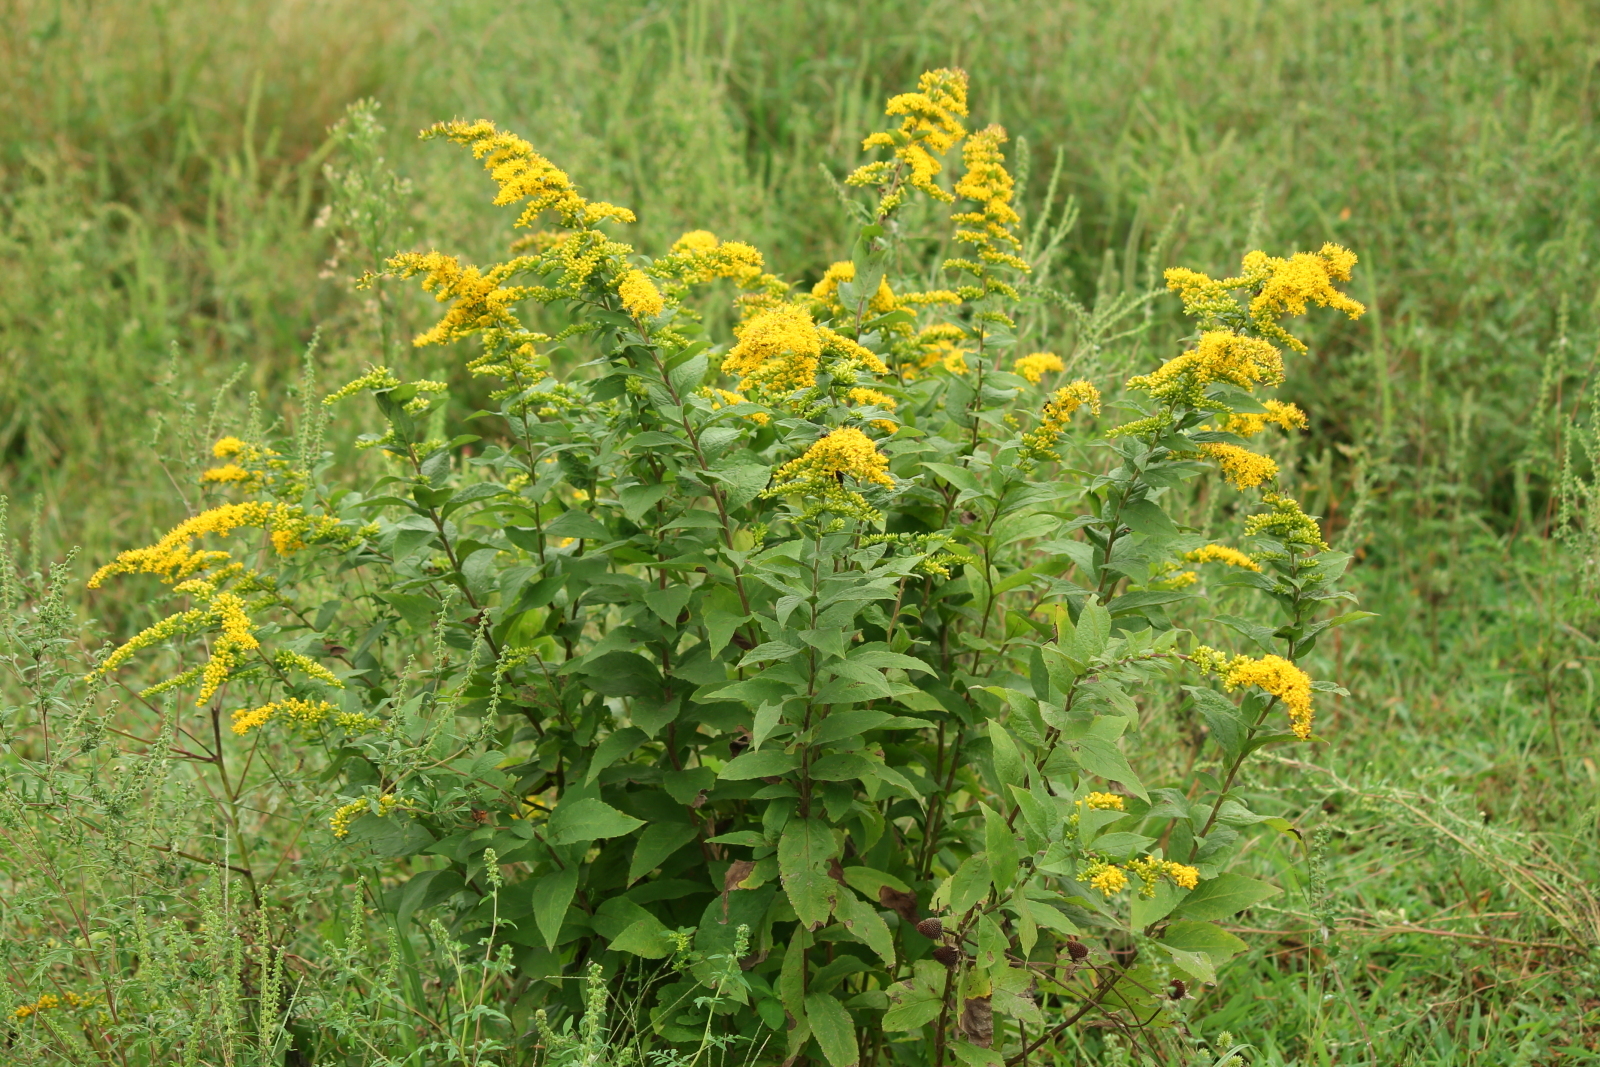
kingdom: Plantae
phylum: Tracheophyta
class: Magnoliopsida
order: Asterales
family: Asteraceae
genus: Solidago
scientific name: Solidago rugosa
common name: Rough-stemmed goldenrod
